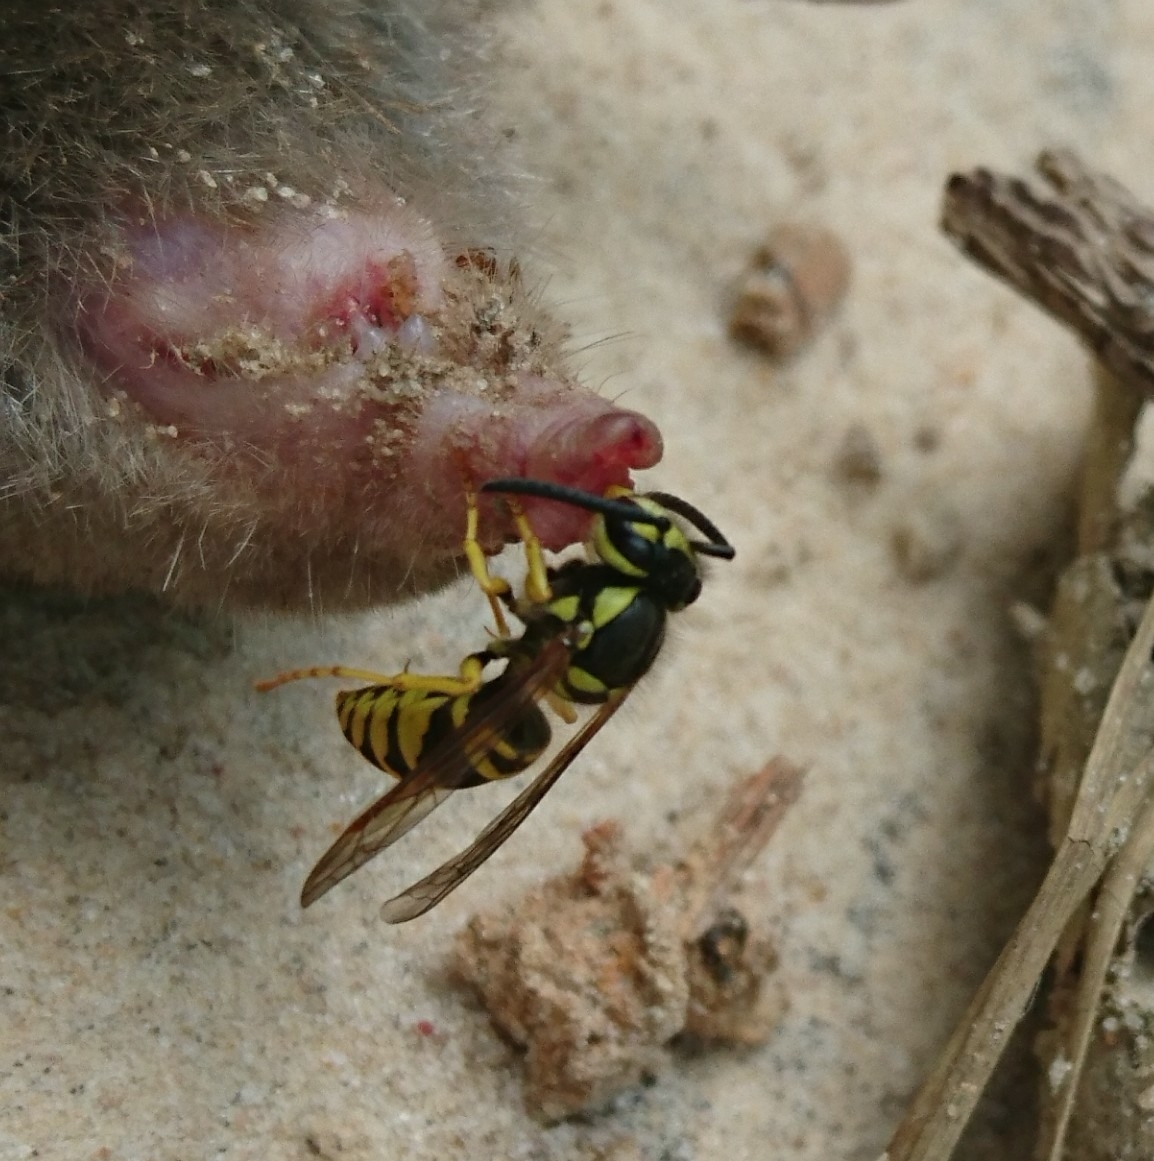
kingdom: Animalia
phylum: Arthropoda
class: Insecta
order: Hymenoptera
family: Vespidae
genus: Vespula
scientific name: Vespula maculifrons
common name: Eastern yellowjacket
